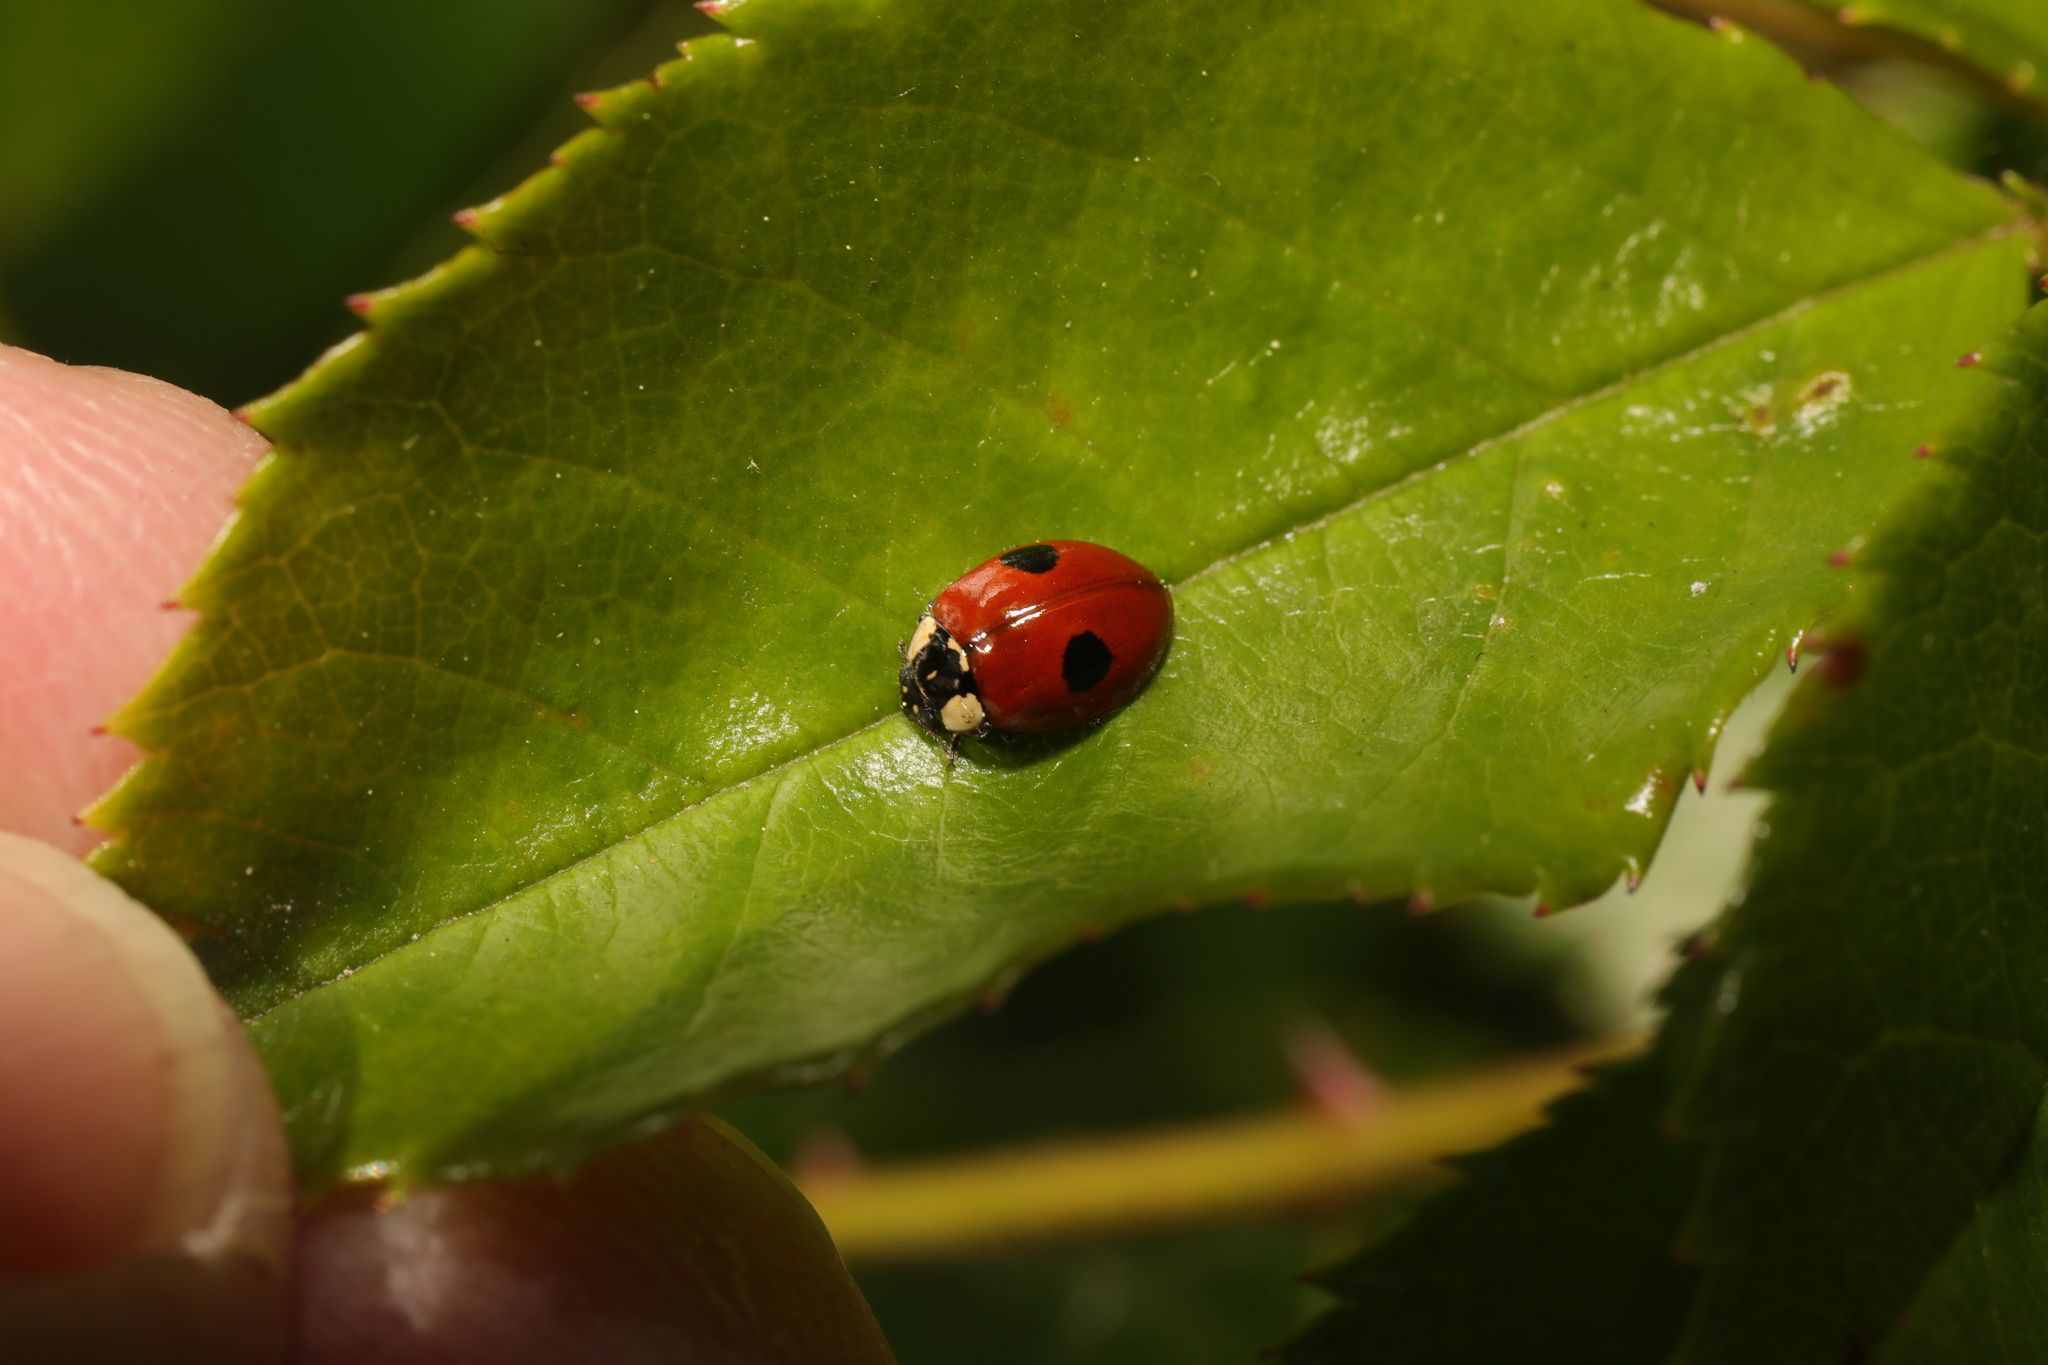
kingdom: Animalia
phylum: Arthropoda
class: Insecta
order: Coleoptera
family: Coccinellidae
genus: Adalia
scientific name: Adalia bipunctata
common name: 2-spot ladybird
